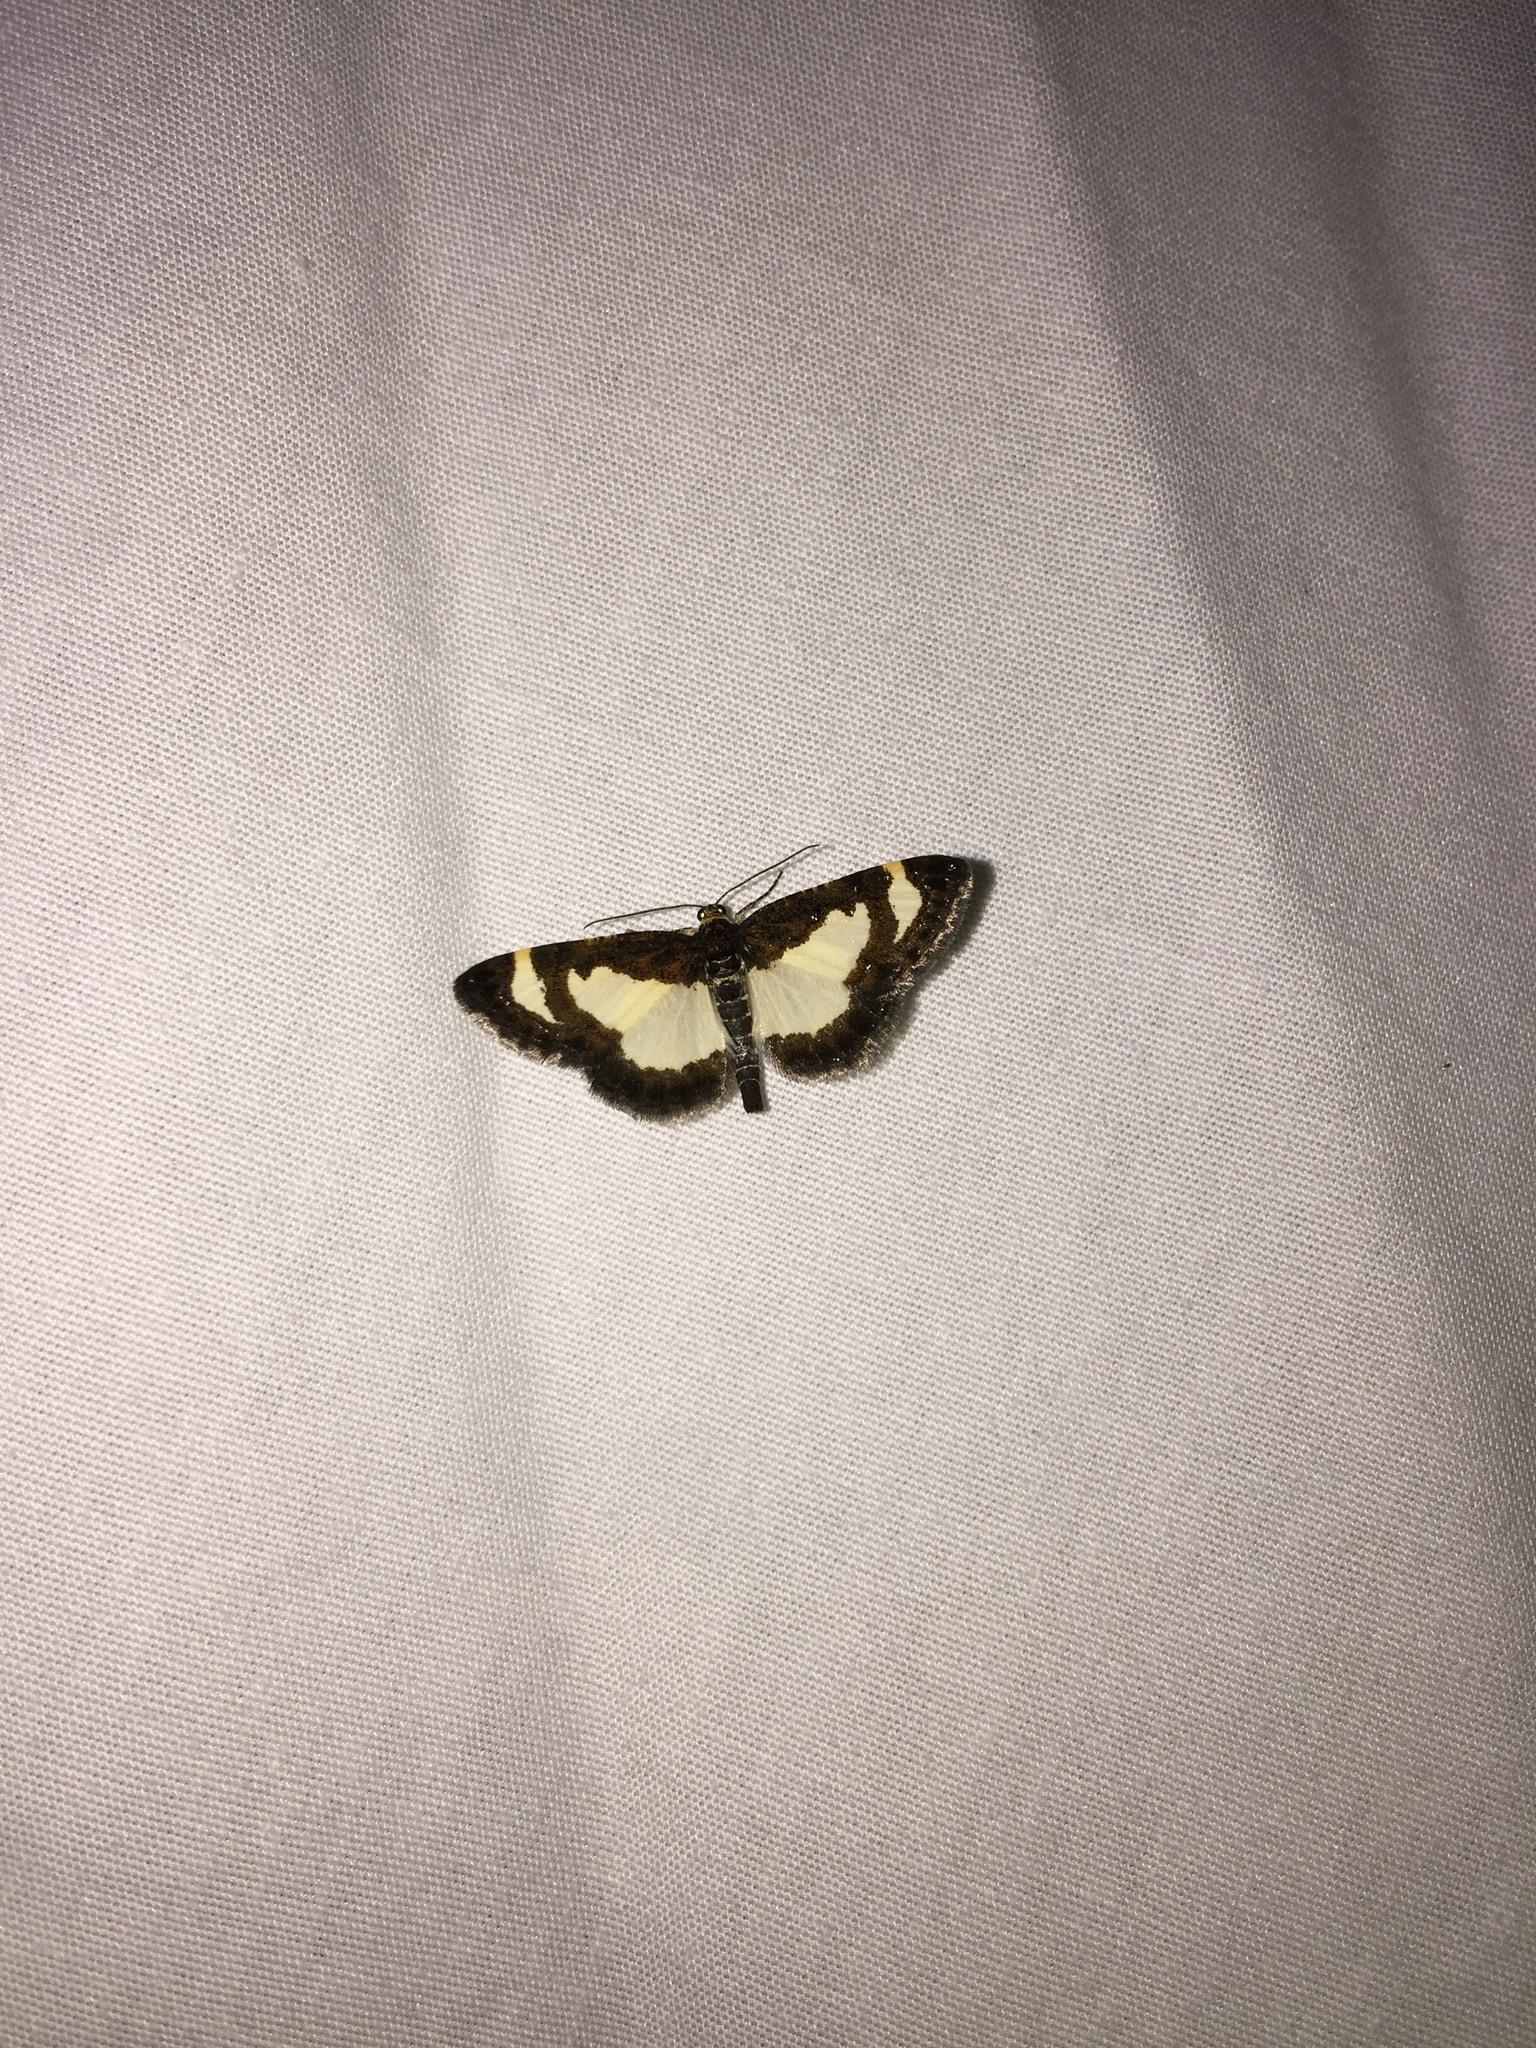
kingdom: Animalia
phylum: Arthropoda
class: Insecta
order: Lepidoptera
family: Geometridae
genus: Heliomata
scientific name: Heliomata cycladata
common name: Common spring moth
